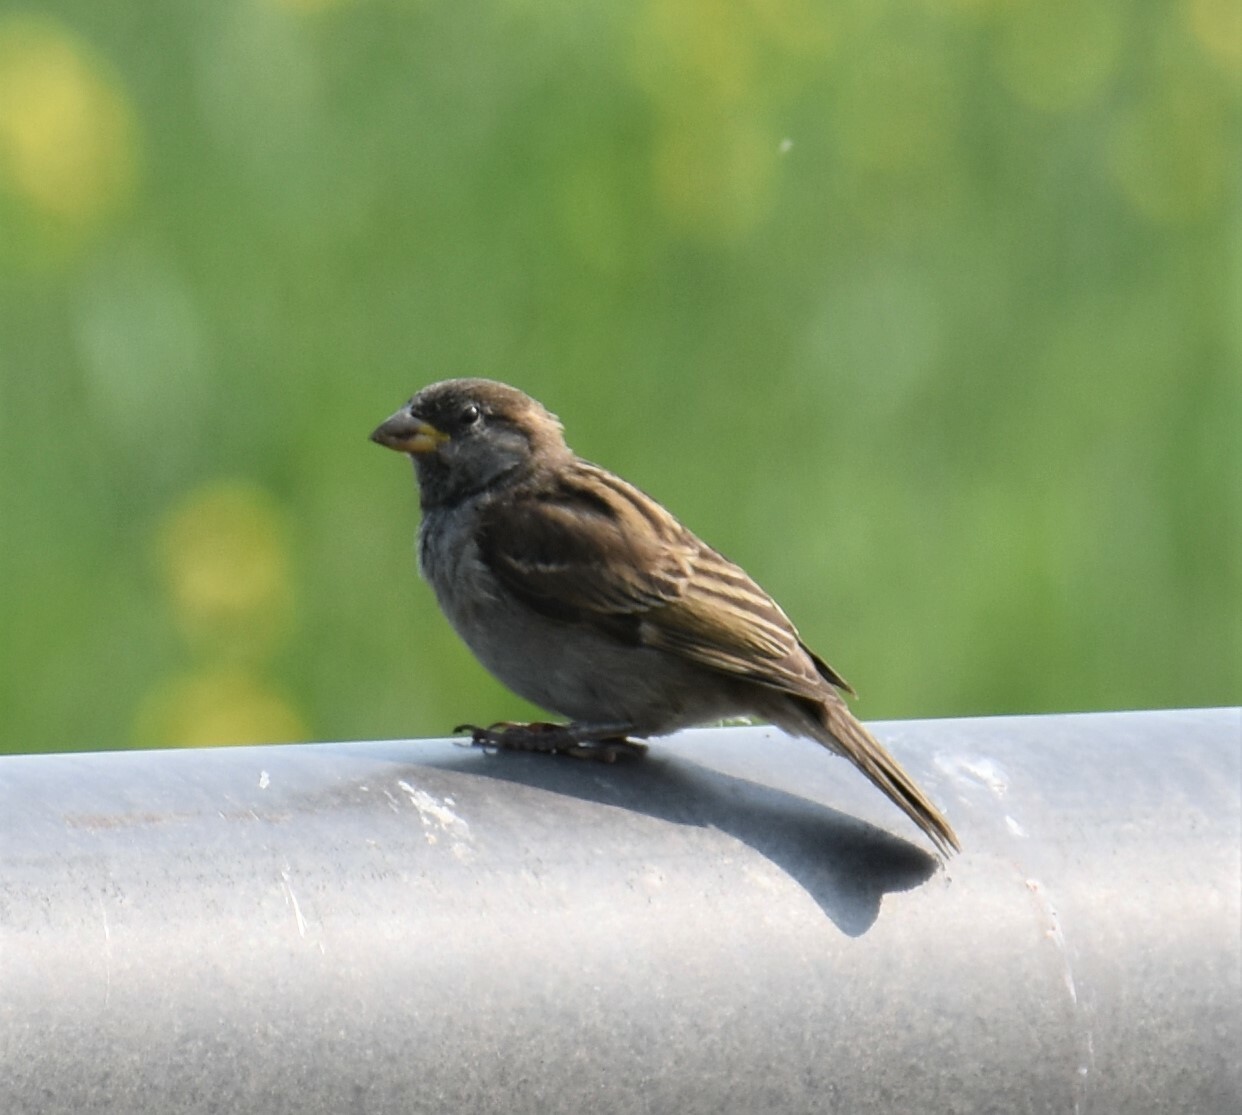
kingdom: Animalia
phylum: Chordata
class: Aves
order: Passeriformes
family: Passeridae
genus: Passer
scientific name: Passer domesticus
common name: House sparrow
